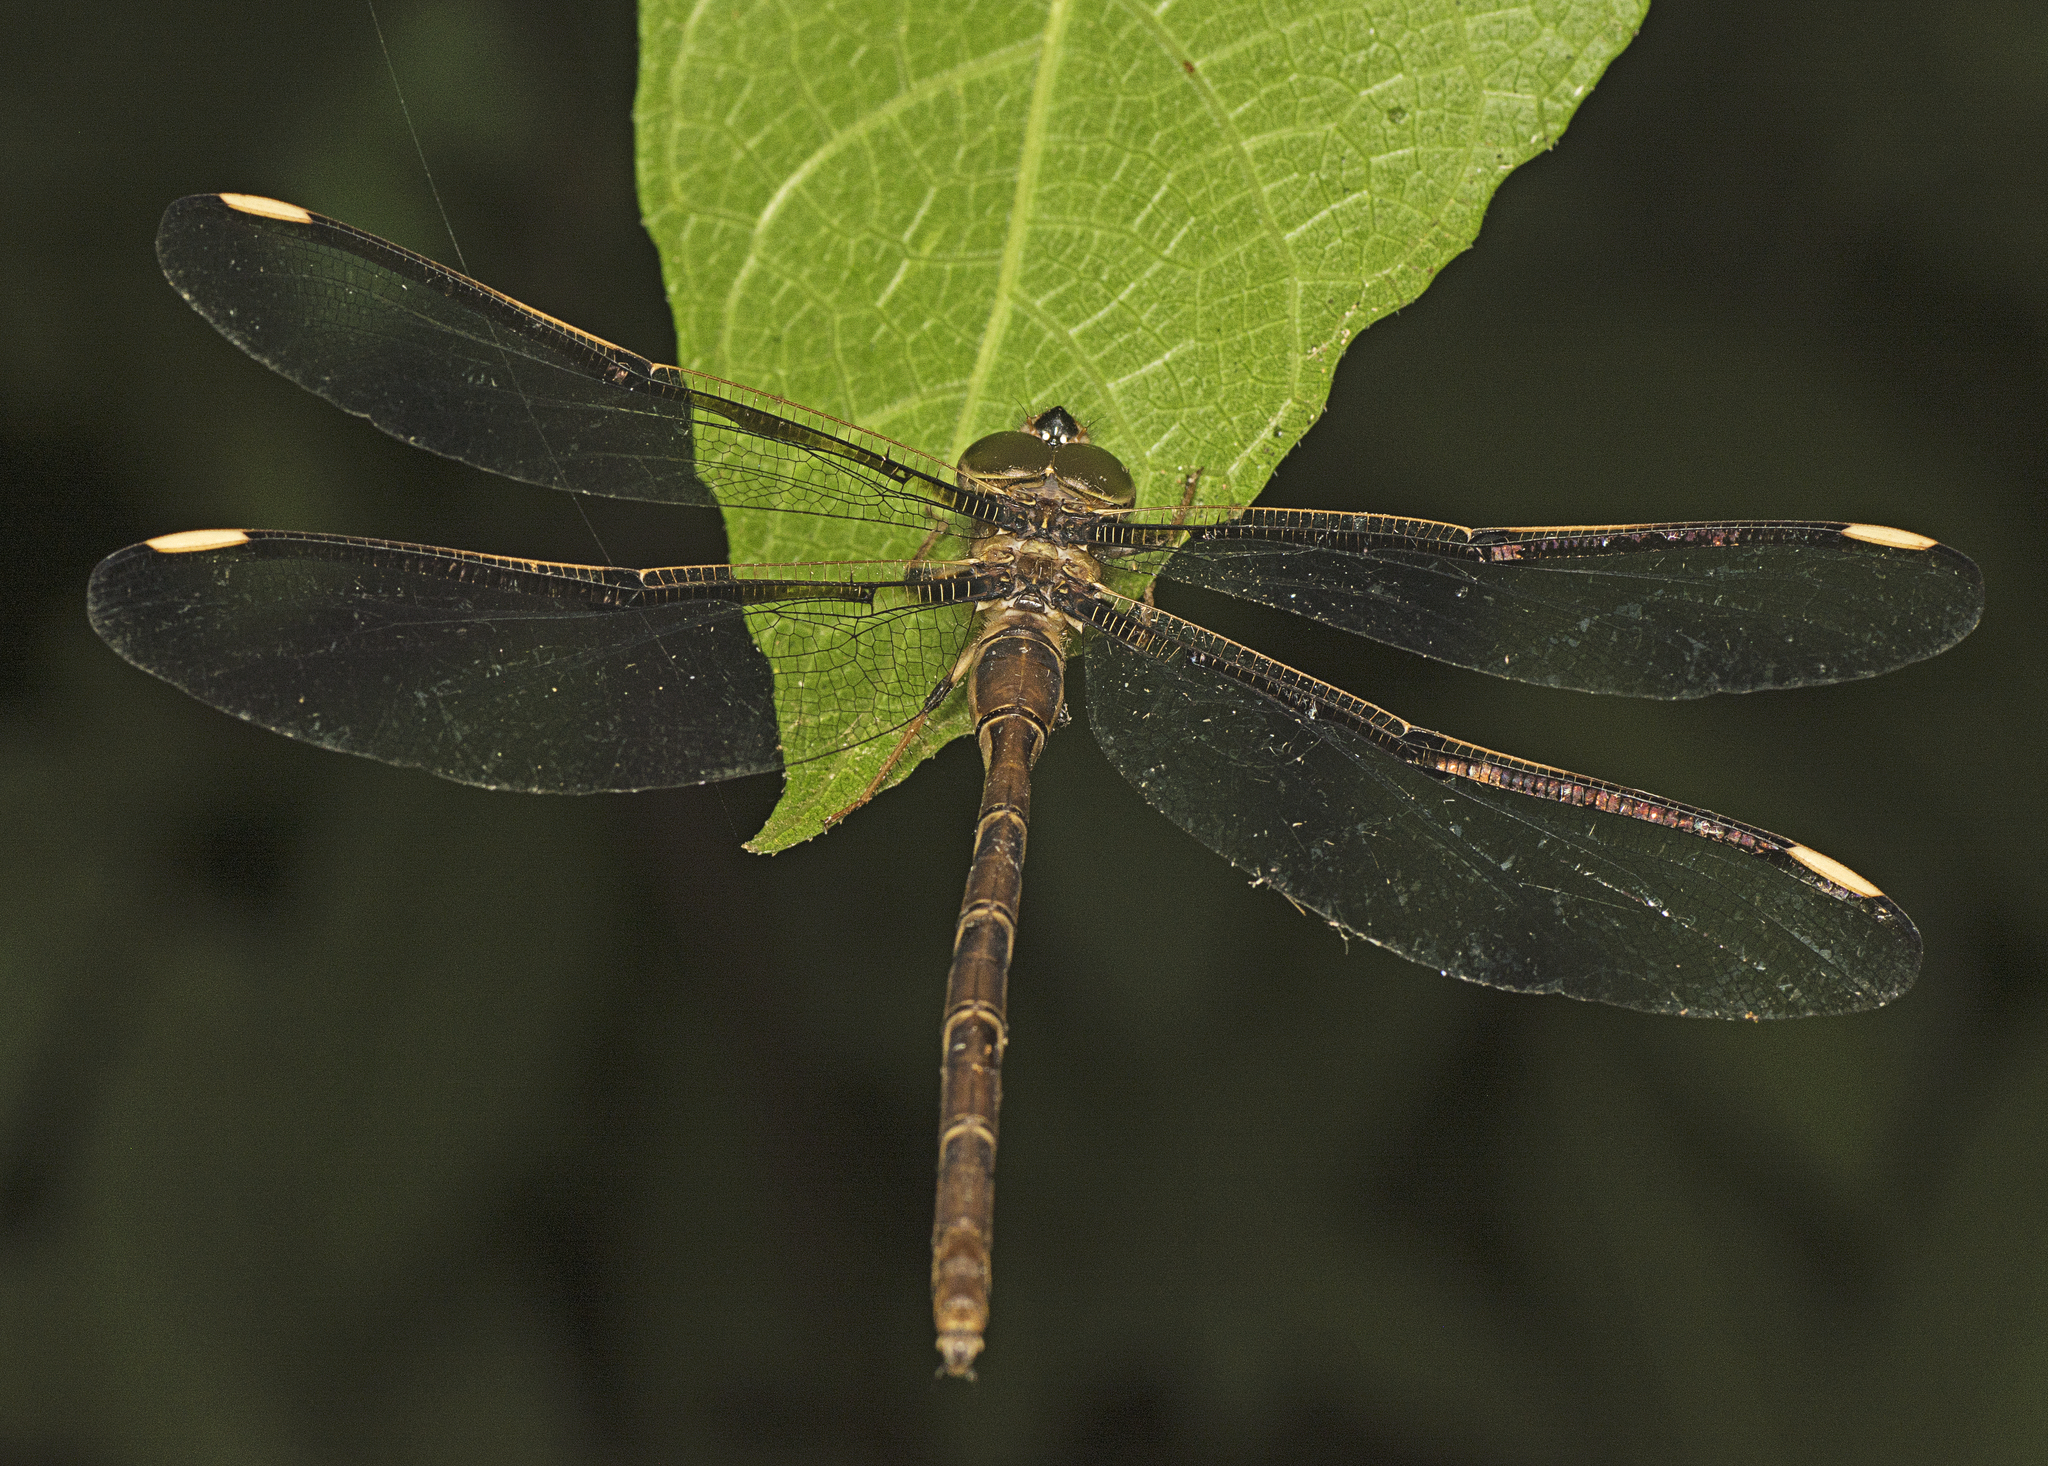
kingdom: Animalia
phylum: Arthropoda
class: Insecta
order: Odonata
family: Aeshnidae
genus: Telephlebia
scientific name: Telephlebia cyclops
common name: Northern evening darner
